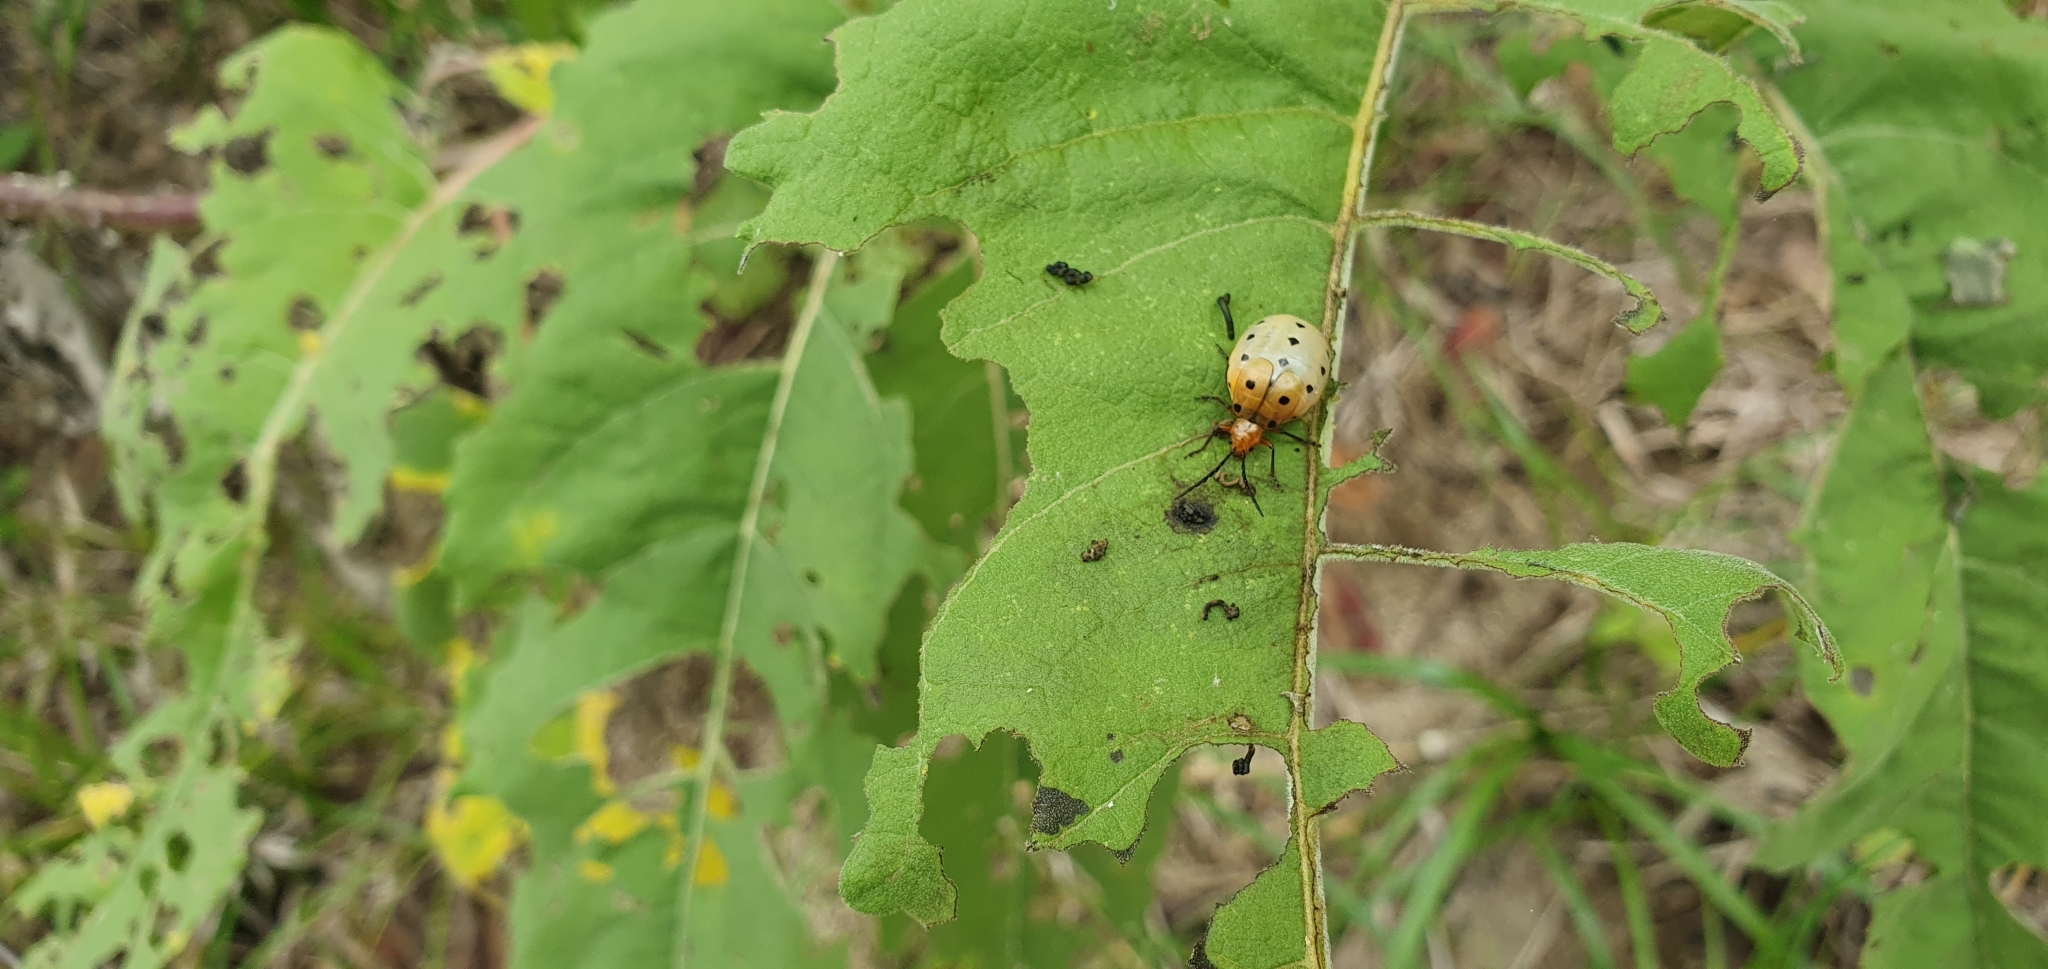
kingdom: Animalia
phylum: Arthropoda
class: Insecta
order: Coleoptera
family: Chrysomelidae
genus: Metacycla
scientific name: Metacycla
